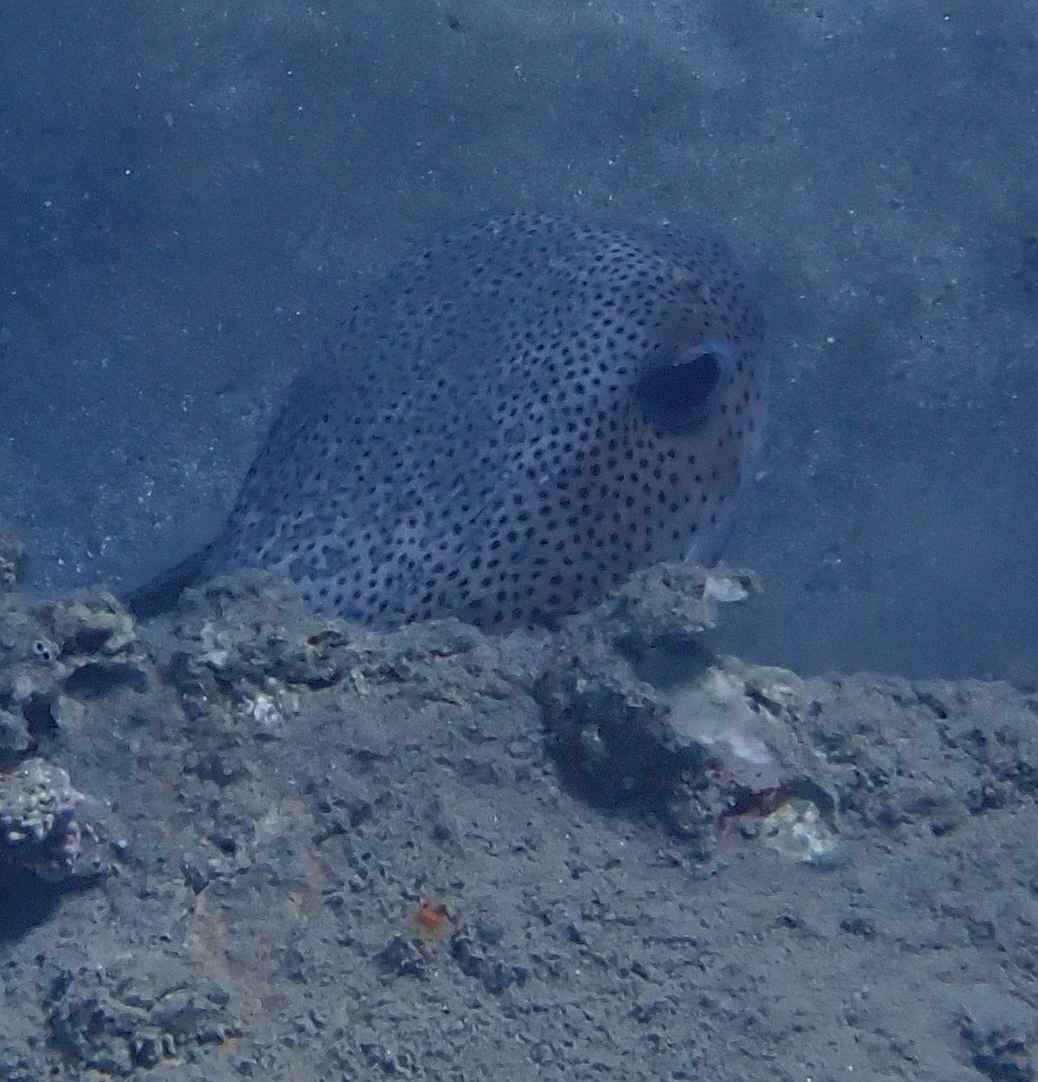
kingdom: Animalia
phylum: Chordata
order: Tetraodontiformes
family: Diodontidae
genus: Diodon
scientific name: Diodon hystrix
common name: Giant porcupinefish
